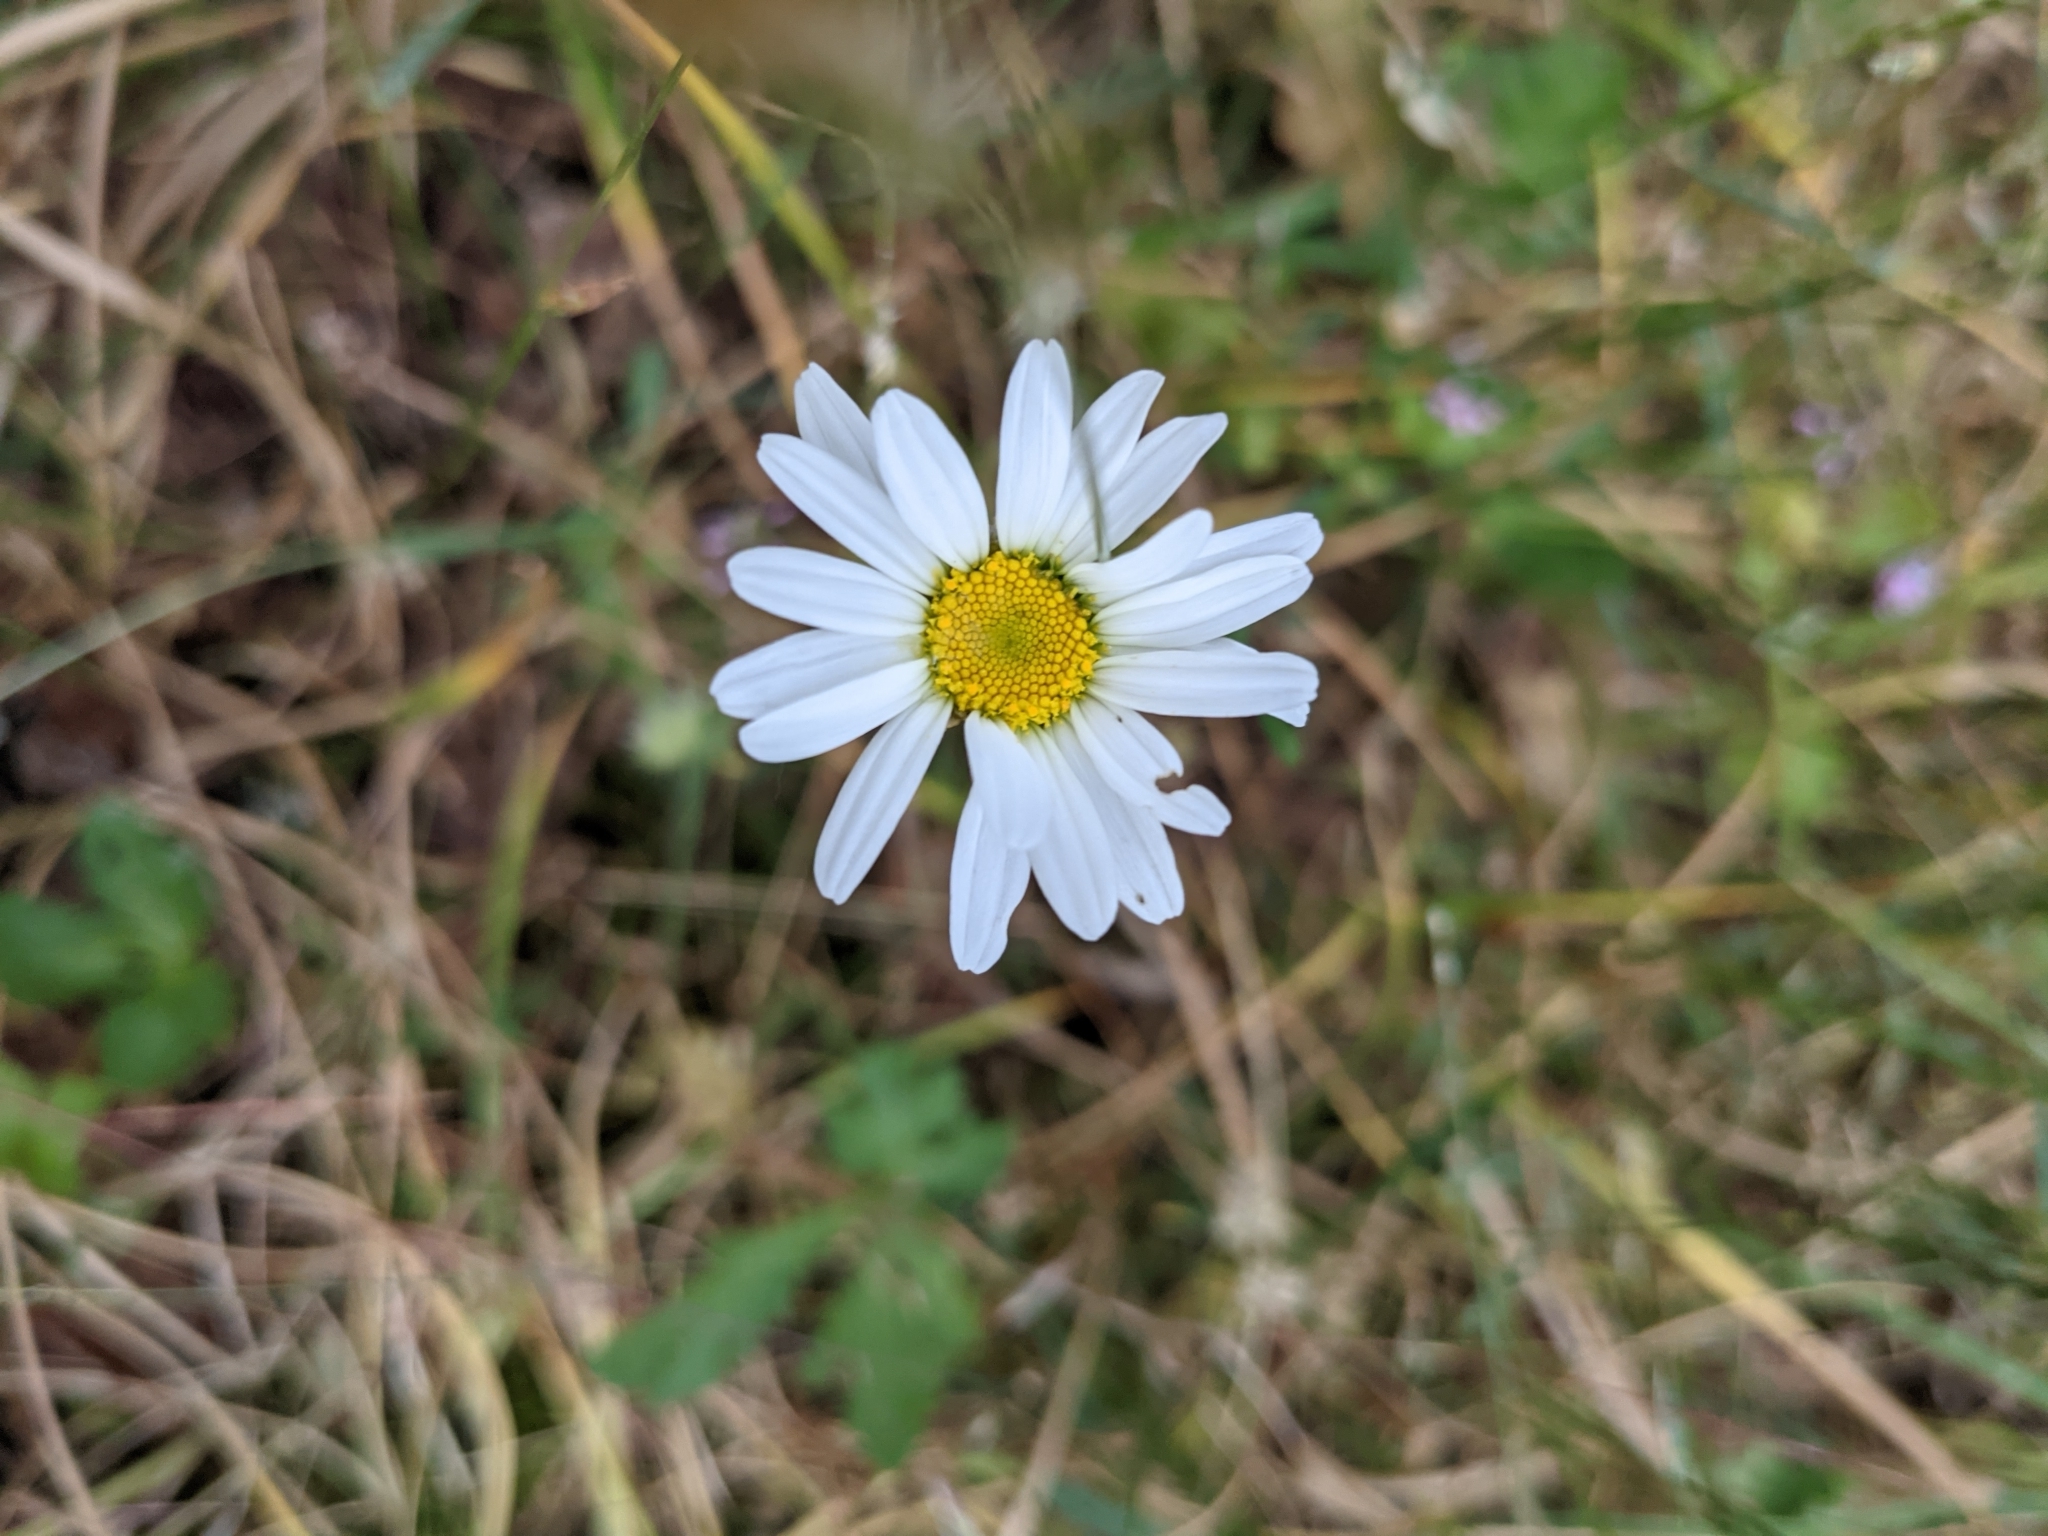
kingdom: Plantae
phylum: Tracheophyta
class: Magnoliopsida
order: Asterales
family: Asteraceae
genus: Leucanthemum
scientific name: Leucanthemum vulgare
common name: Oxeye daisy
